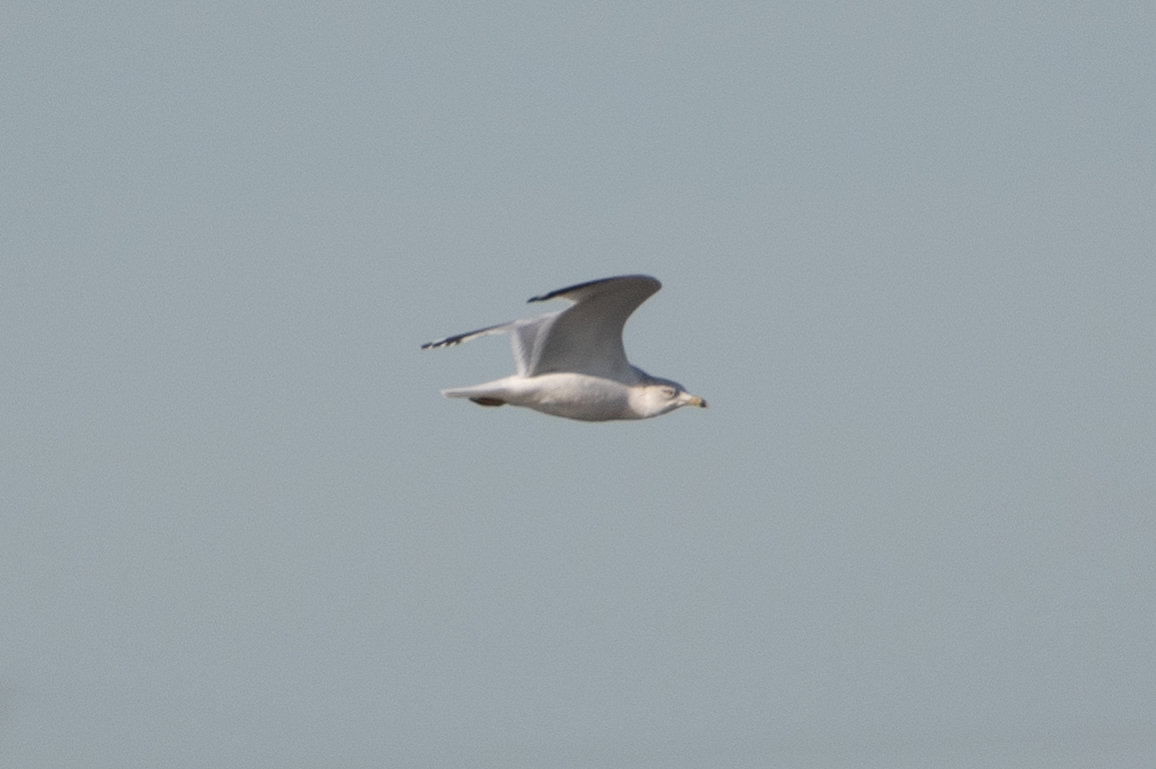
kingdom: Animalia
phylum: Chordata
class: Aves
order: Charadriiformes
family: Laridae
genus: Larus
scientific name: Larus delawarensis
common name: Ring-billed gull
